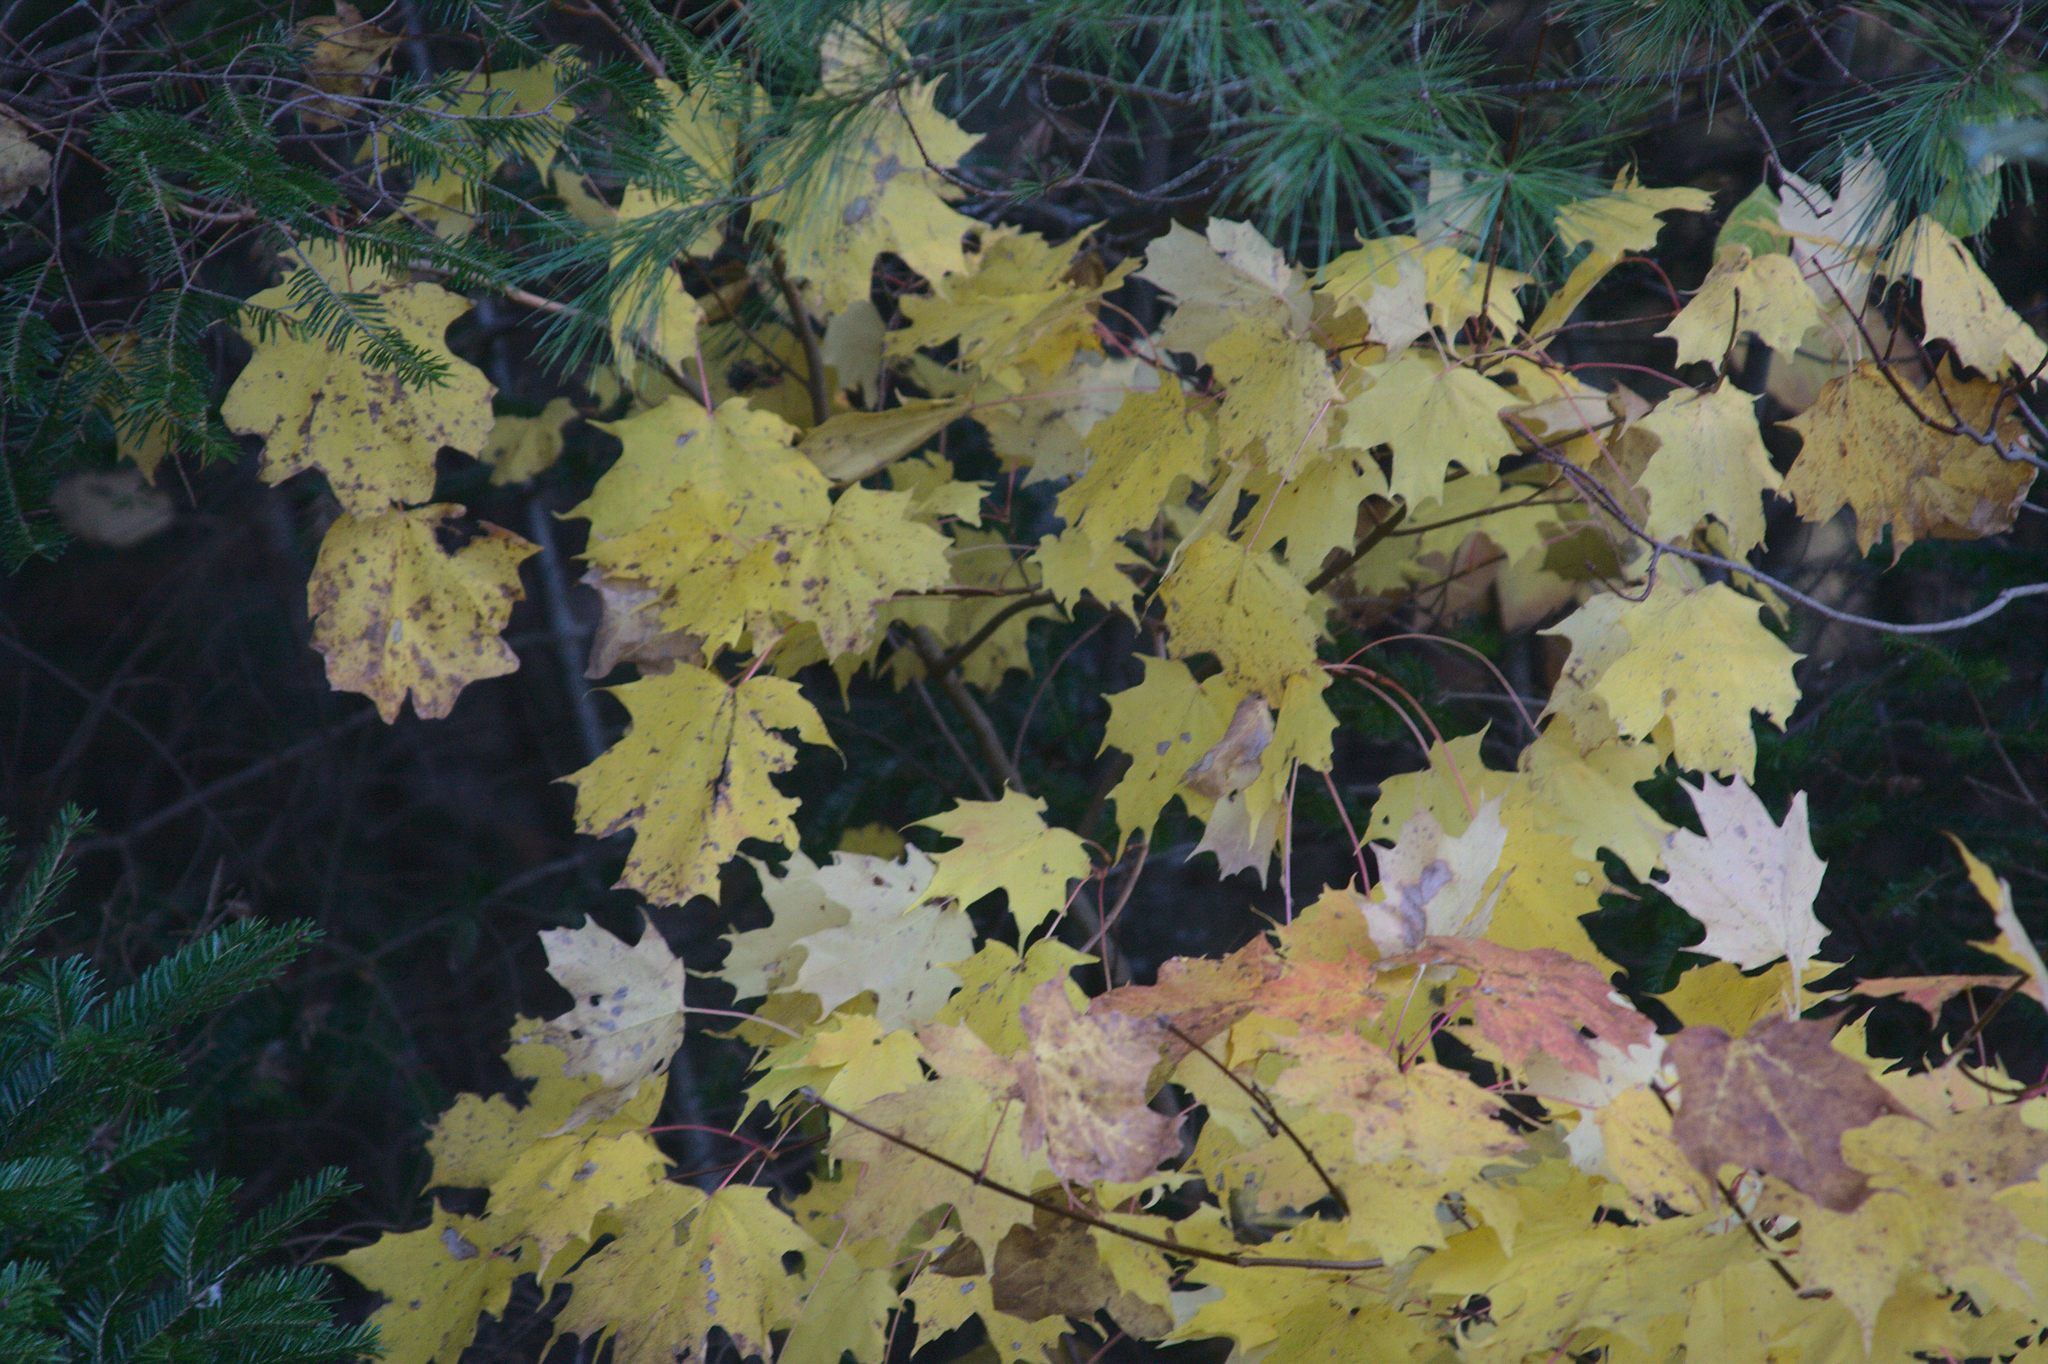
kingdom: Plantae
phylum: Tracheophyta
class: Magnoliopsida
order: Sapindales
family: Sapindaceae
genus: Acer
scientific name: Acer saccharum
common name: Sugar maple
